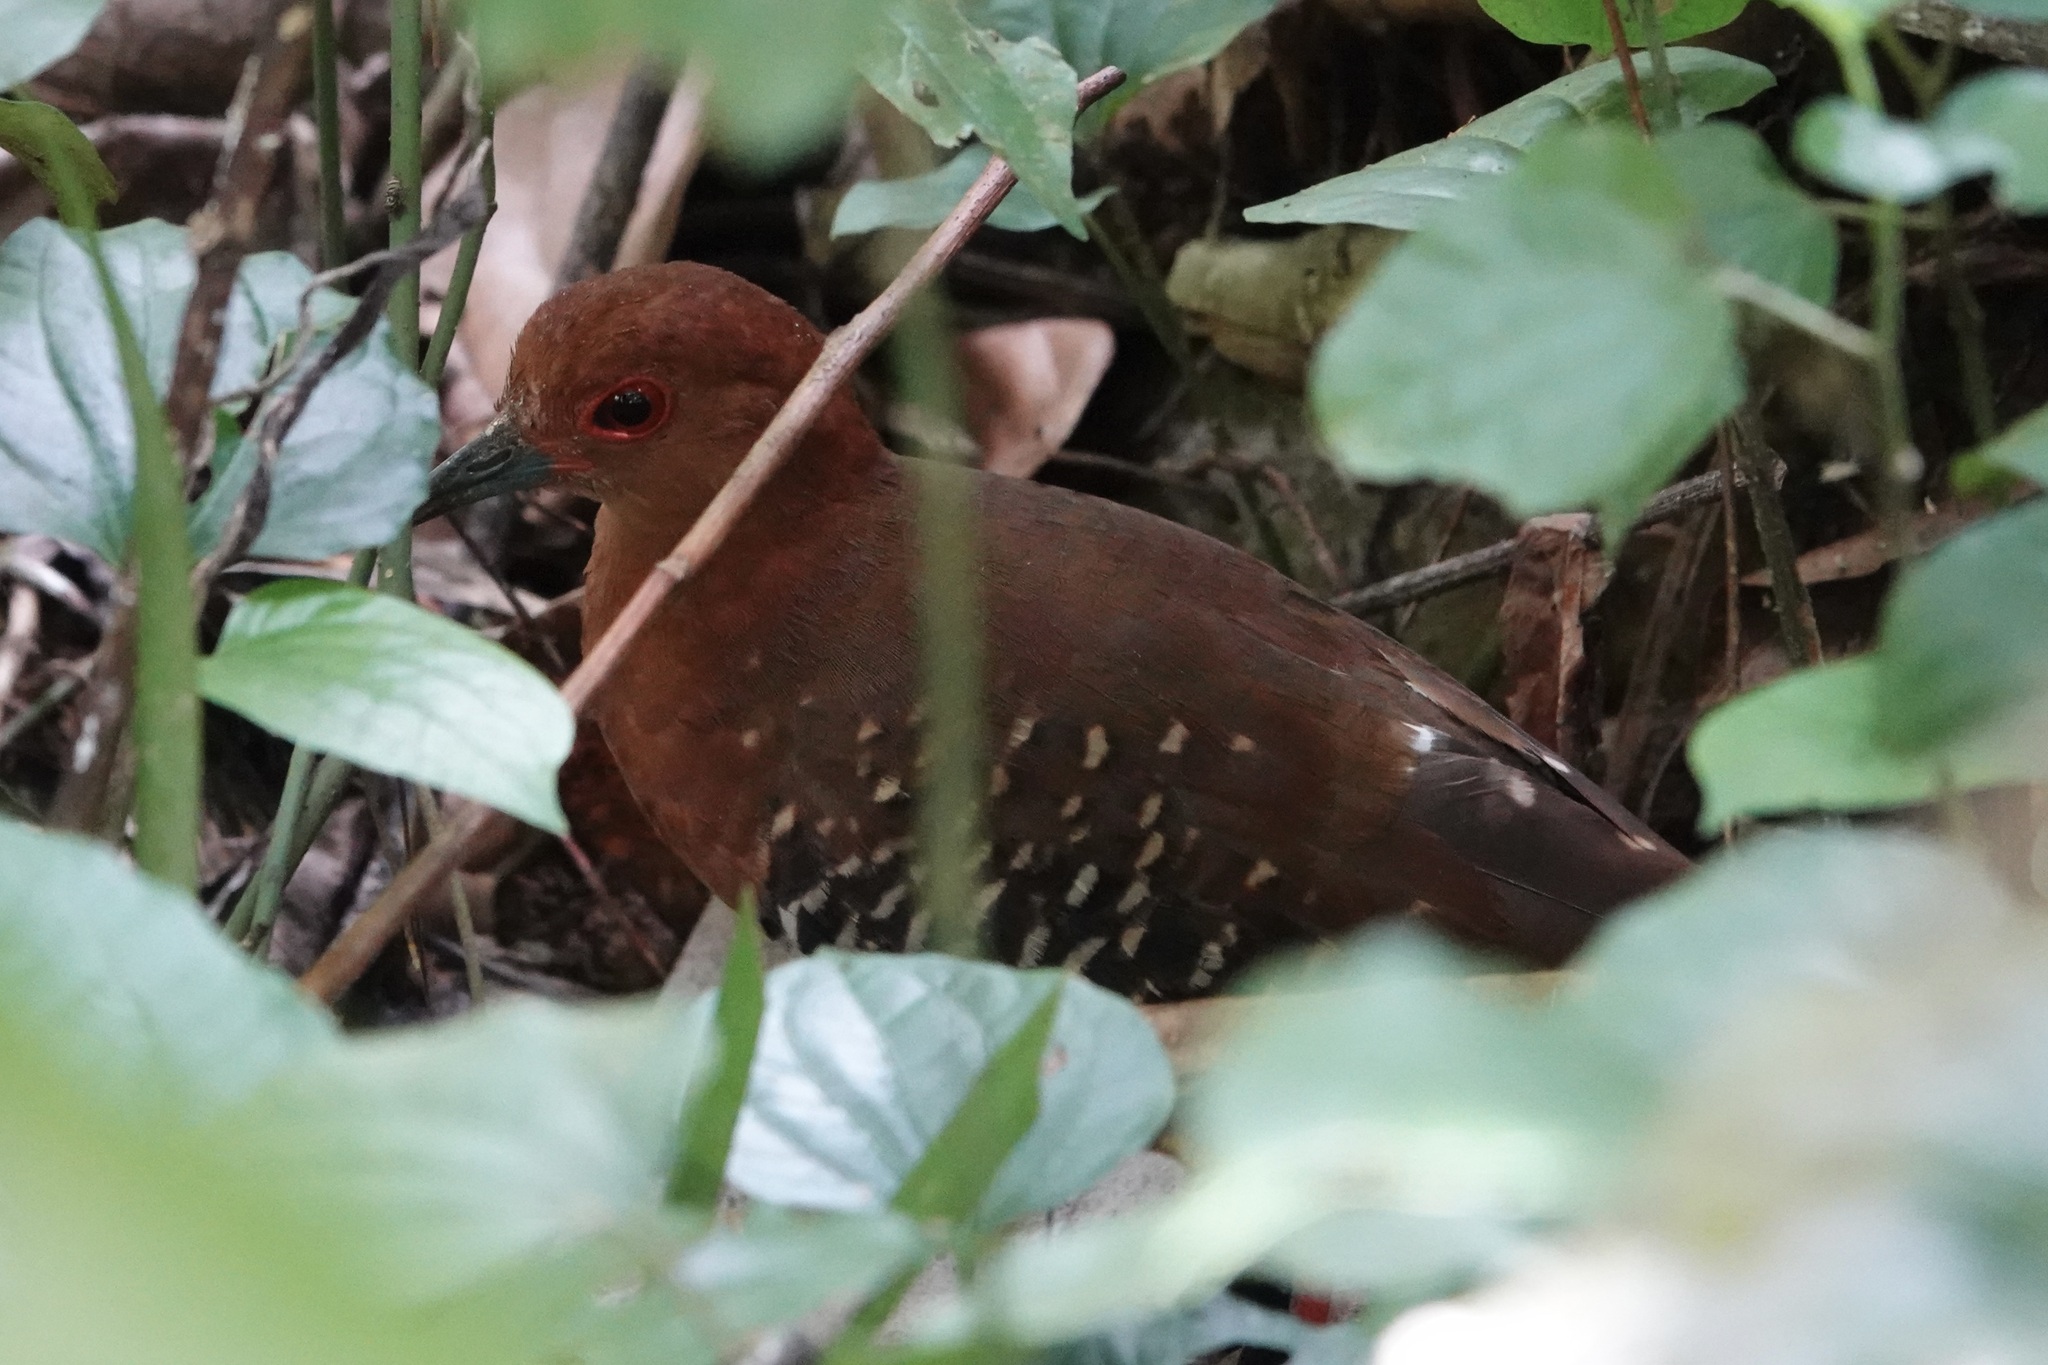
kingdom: Animalia
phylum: Chordata
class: Aves
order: Gruiformes
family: Rallidae
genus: Rallina
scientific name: Rallina fasciata
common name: Red-legged crake
